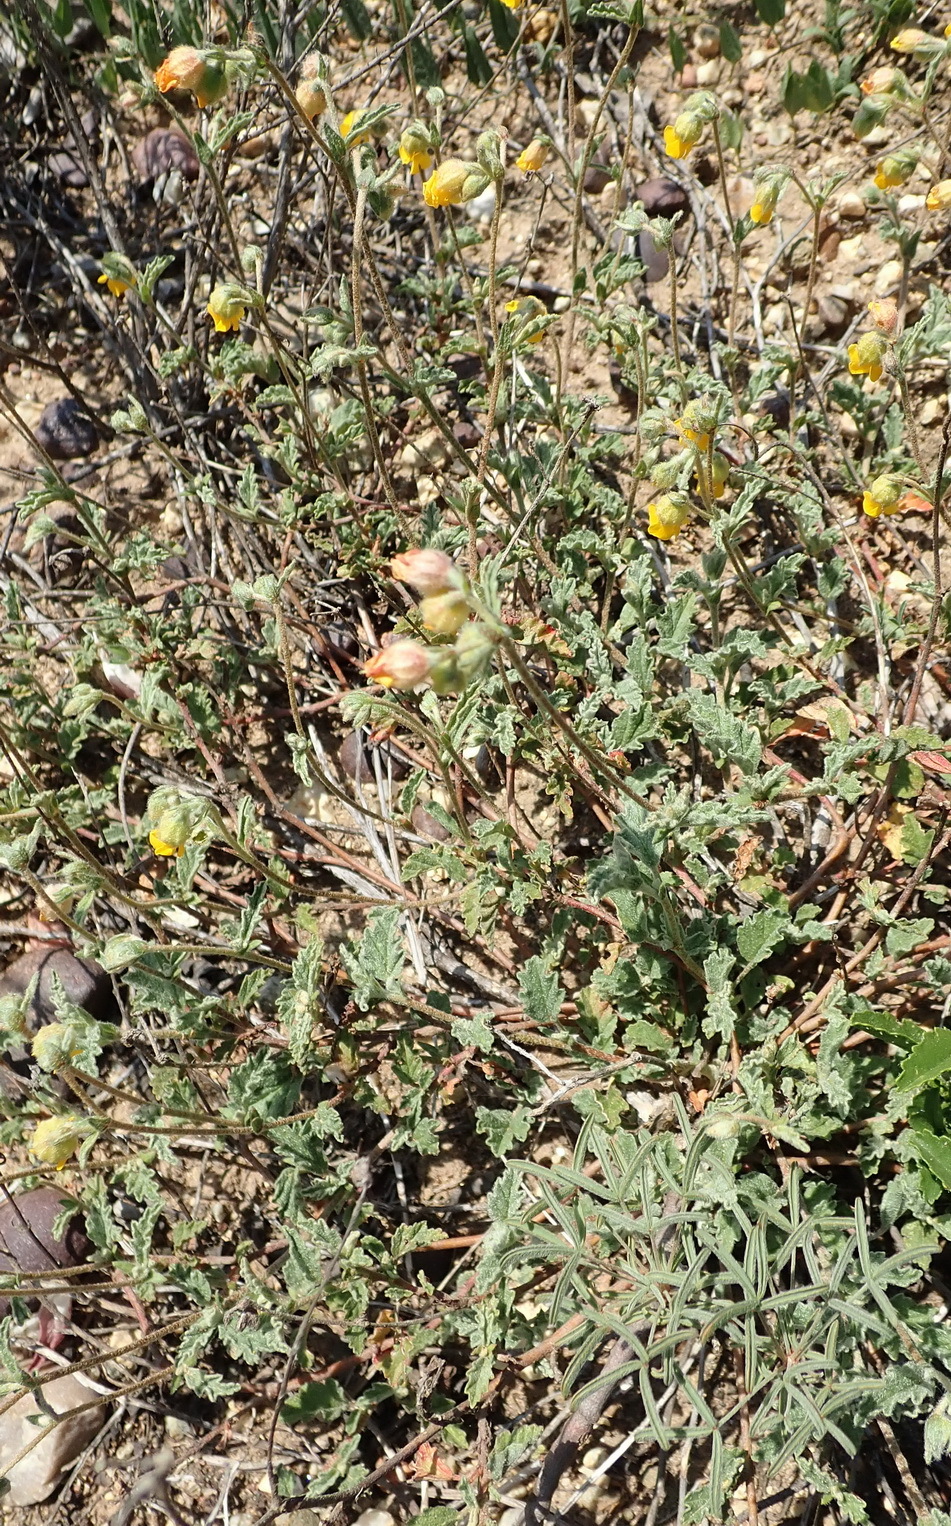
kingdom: Plantae
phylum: Tracheophyta
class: Magnoliopsida
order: Malvales
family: Malvaceae
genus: Hermannia
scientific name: Hermannia althaeifolia
